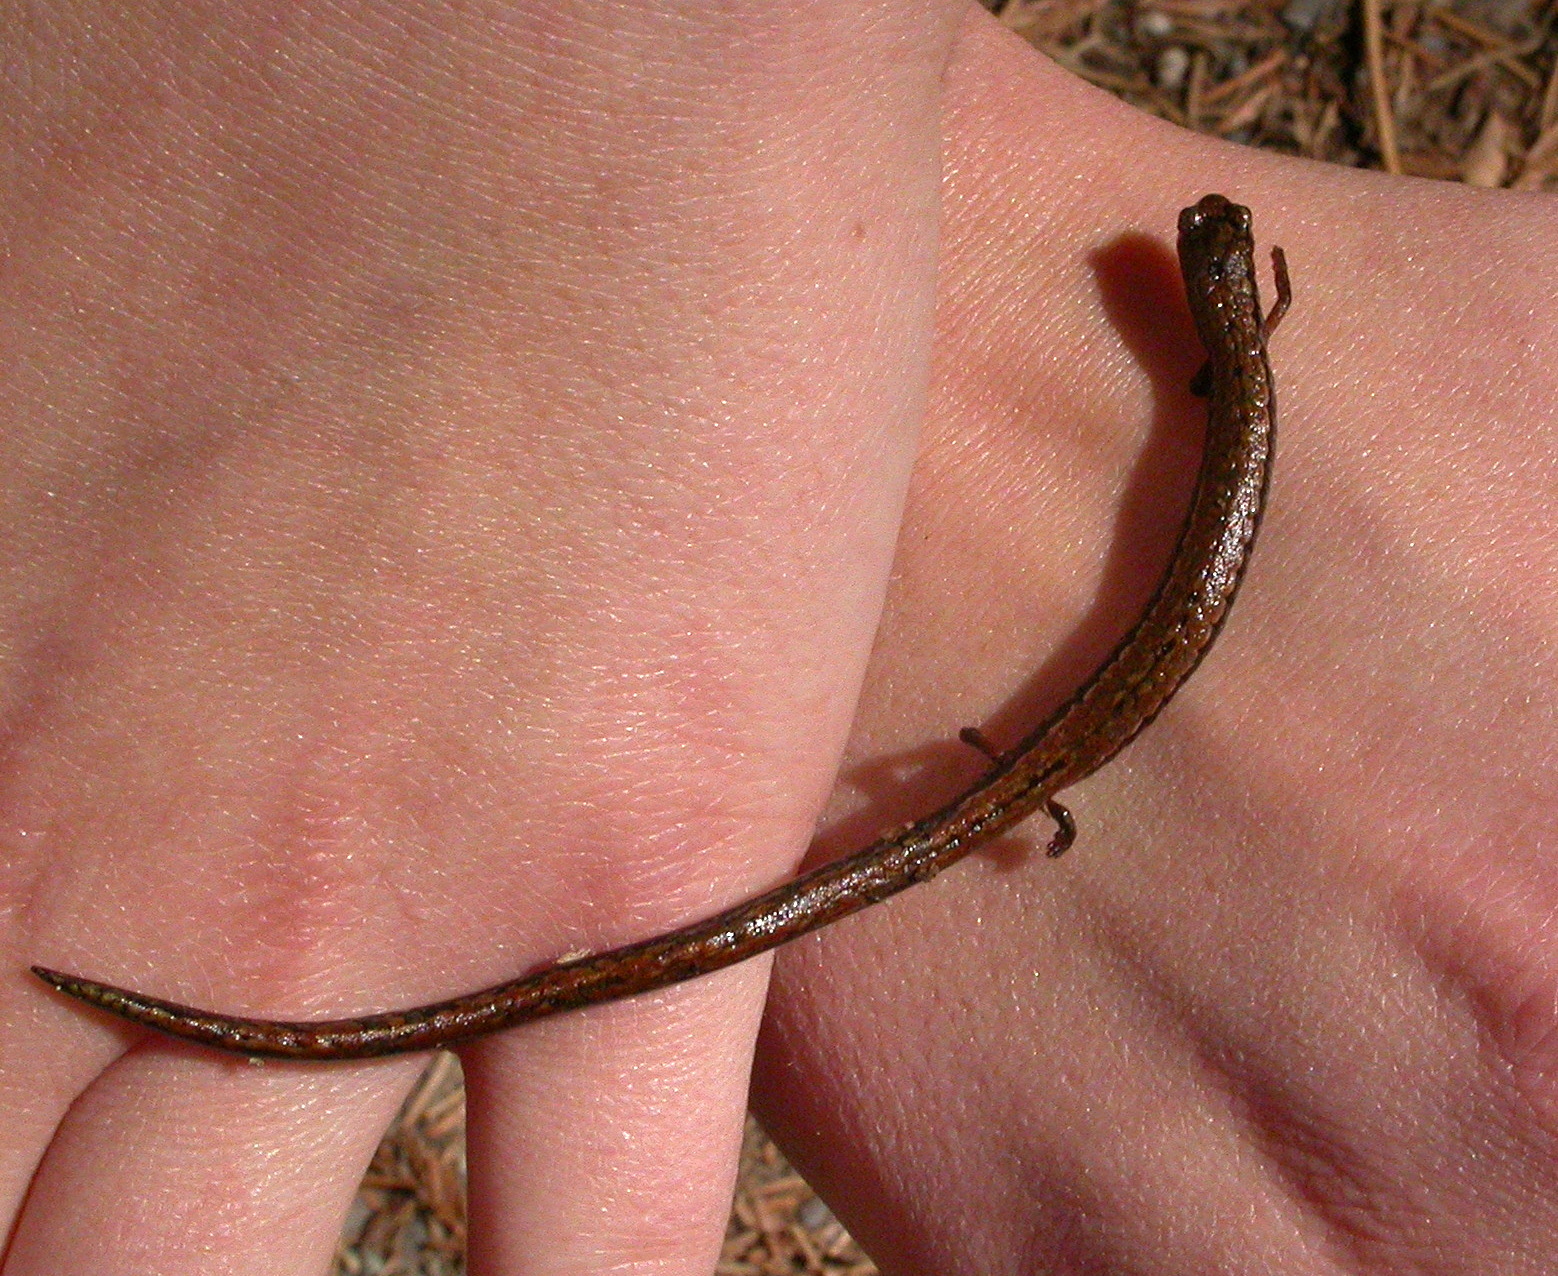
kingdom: Animalia
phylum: Chordata
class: Amphibia
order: Caudata
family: Plethodontidae
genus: Batrachoseps
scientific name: Batrachoseps attenuatus
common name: California slender salamander
